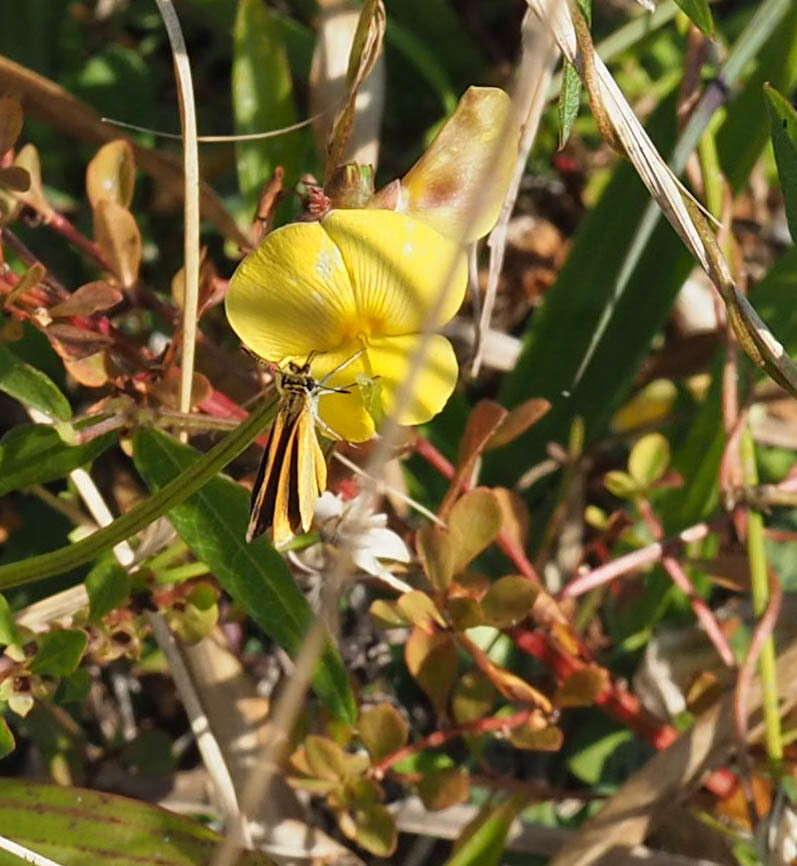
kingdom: Animalia
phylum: Arthropoda
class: Insecta
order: Lepidoptera
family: Hesperiidae
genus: Ancyloxypha
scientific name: Ancyloxypha numitor
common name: Least skipper
